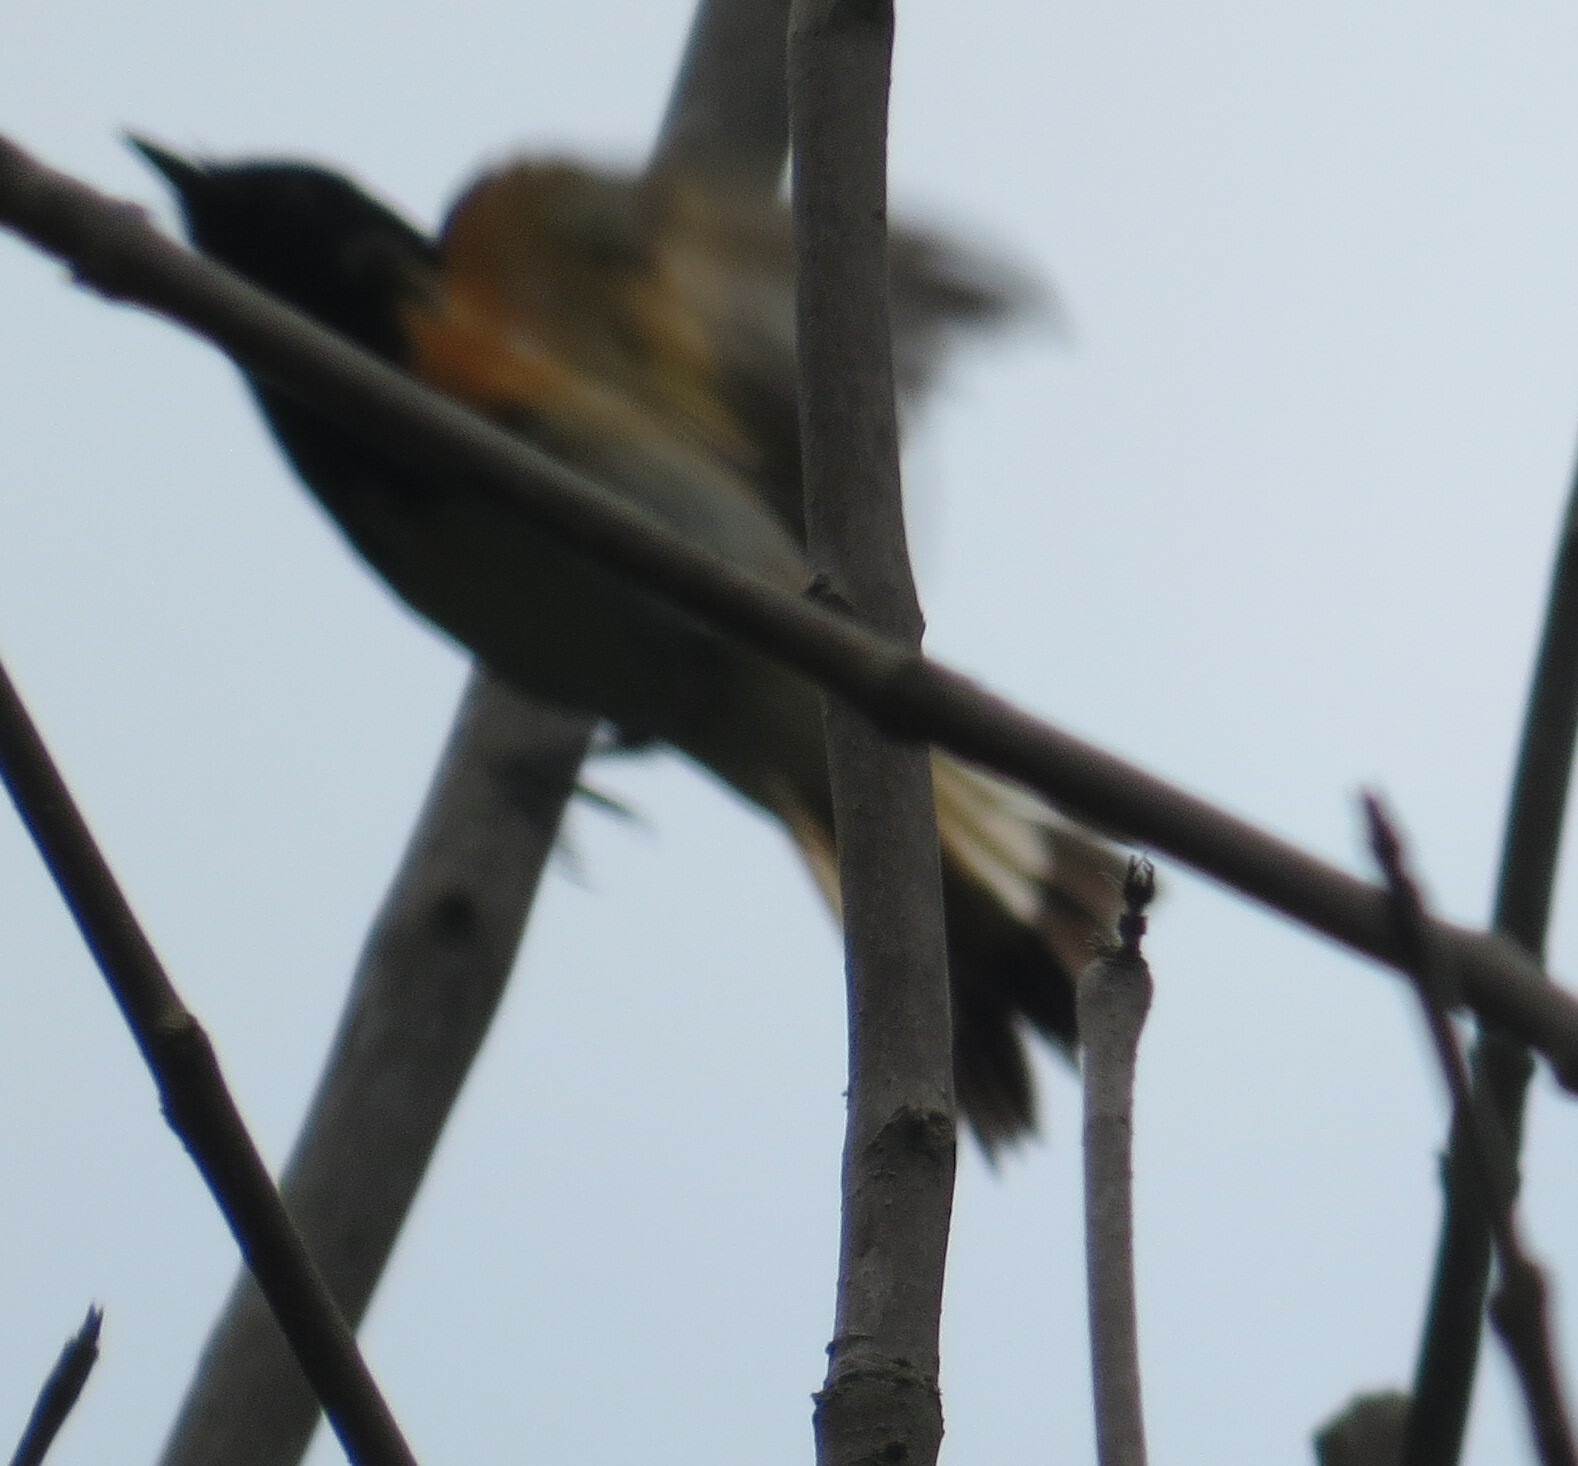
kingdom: Animalia
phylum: Chordata
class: Aves
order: Passeriformes
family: Parulidae
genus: Setophaga
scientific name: Setophaga ruticilla
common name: American redstart
